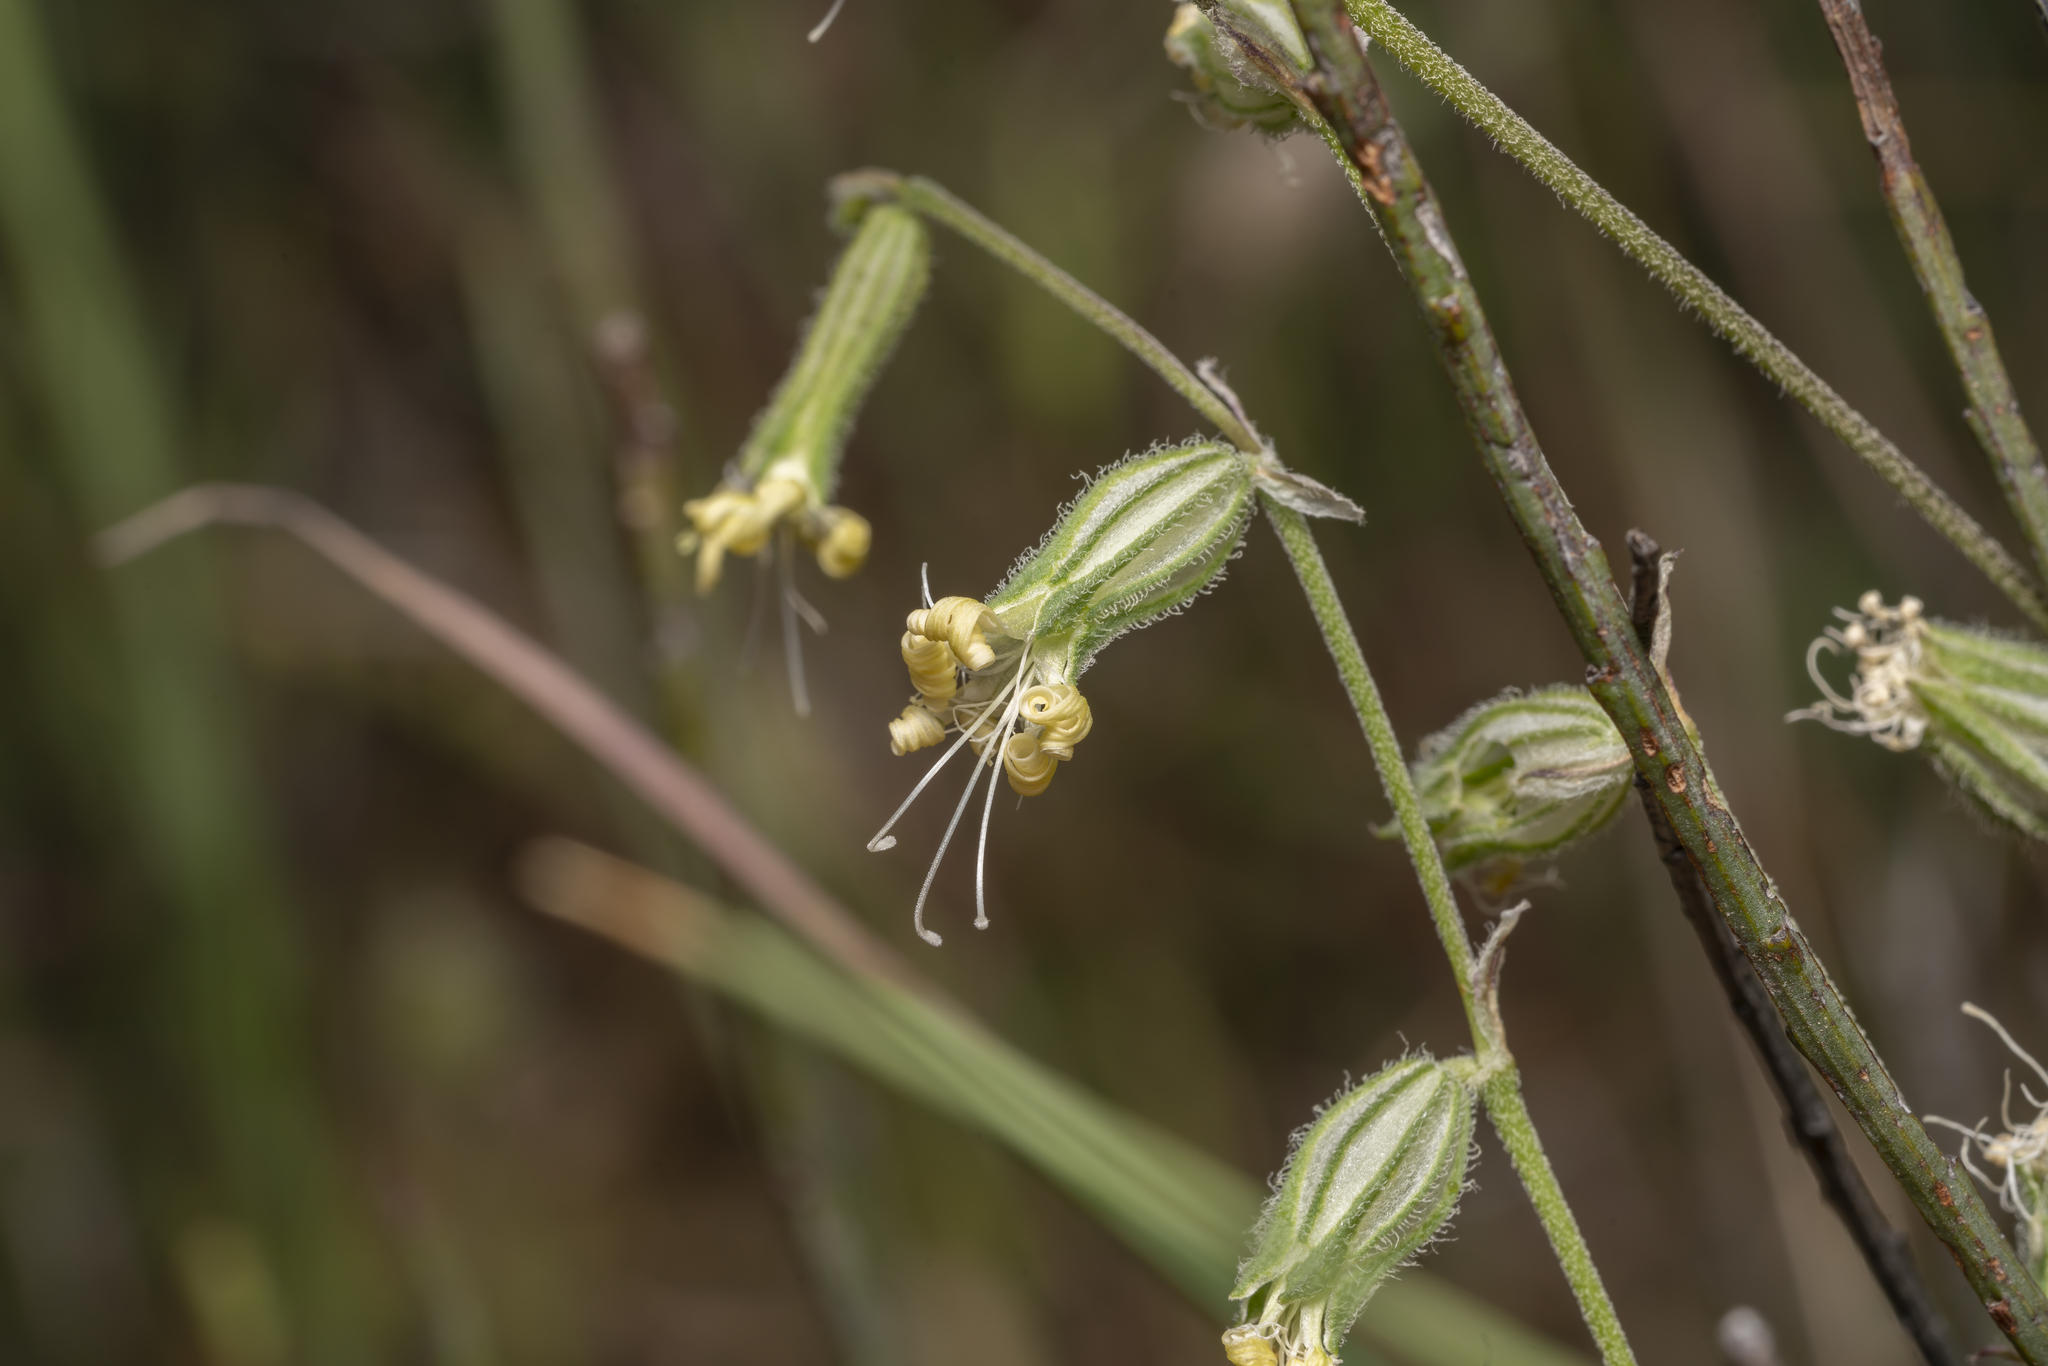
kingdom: Plantae
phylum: Tracheophyta
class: Magnoliopsida
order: Caryophyllales
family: Caryophyllaceae
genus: Silene
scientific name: Silene dichotoma
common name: Forked catchfly
